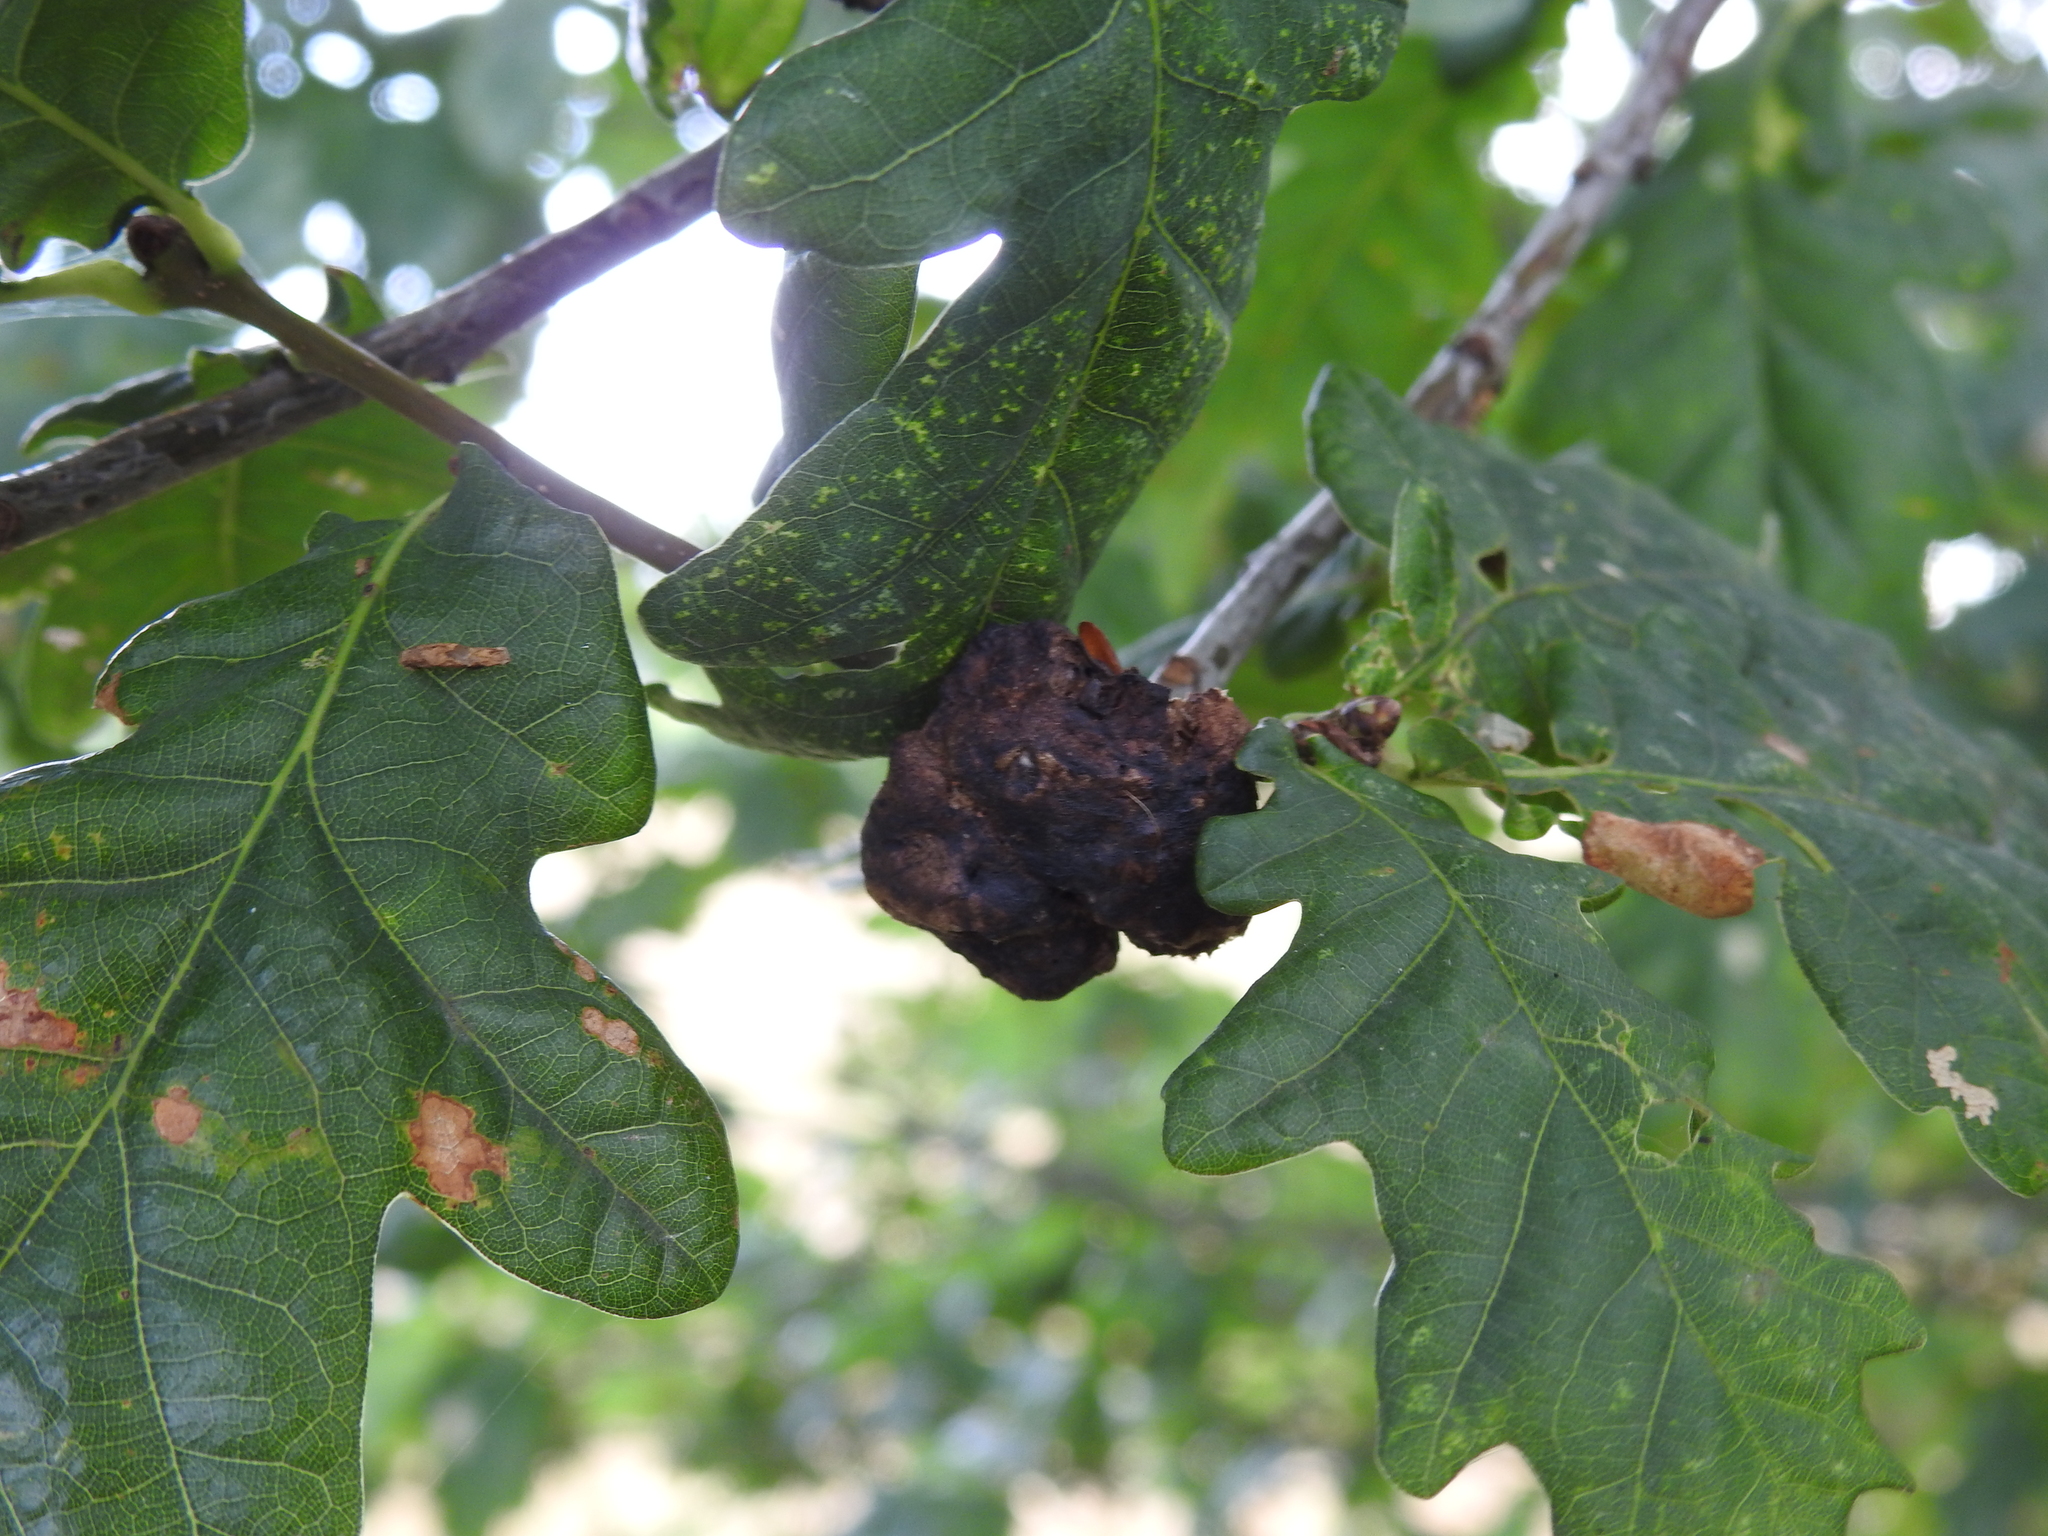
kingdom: Animalia
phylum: Arthropoda
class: Insecta
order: Hymenoptera
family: Cynipidae
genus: Biorhiza
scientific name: Biorhiza pallida
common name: Oak apple
